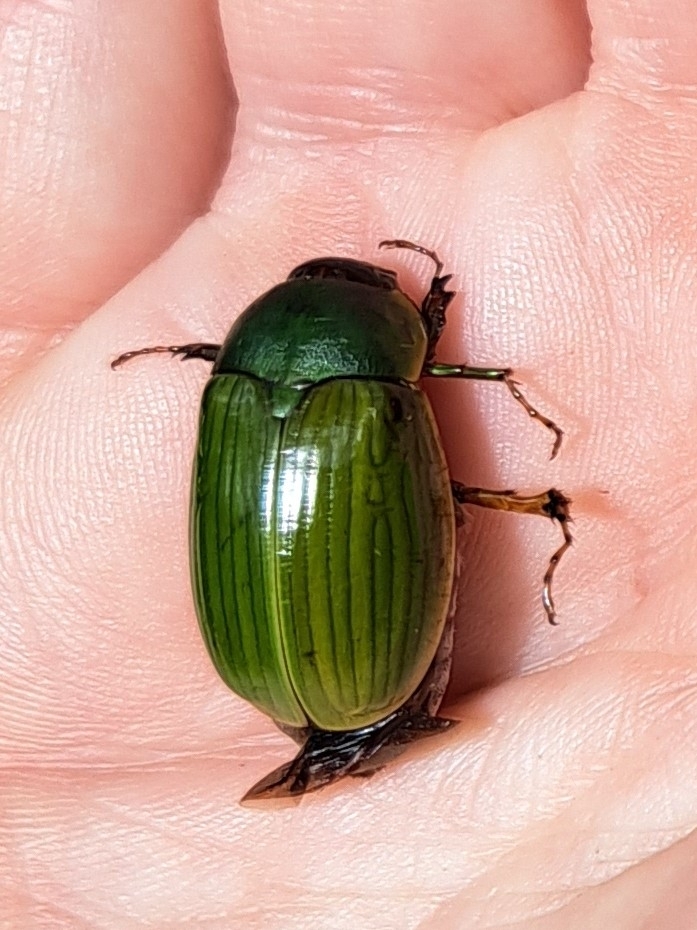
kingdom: Animalia
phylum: Arthropoda
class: Insecta
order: Coleoptera
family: Scarabaeidae
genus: Stethaspis
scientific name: Stethaspis longicornis
